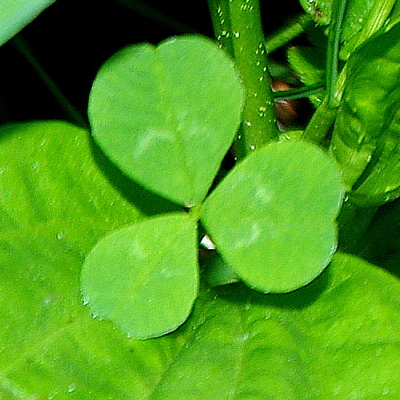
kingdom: Plantae
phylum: Tracheophyta
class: Magnoliopsida
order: Fabales
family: Fabaceae
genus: Trifolium
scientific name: Trifolium repens
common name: White clover
